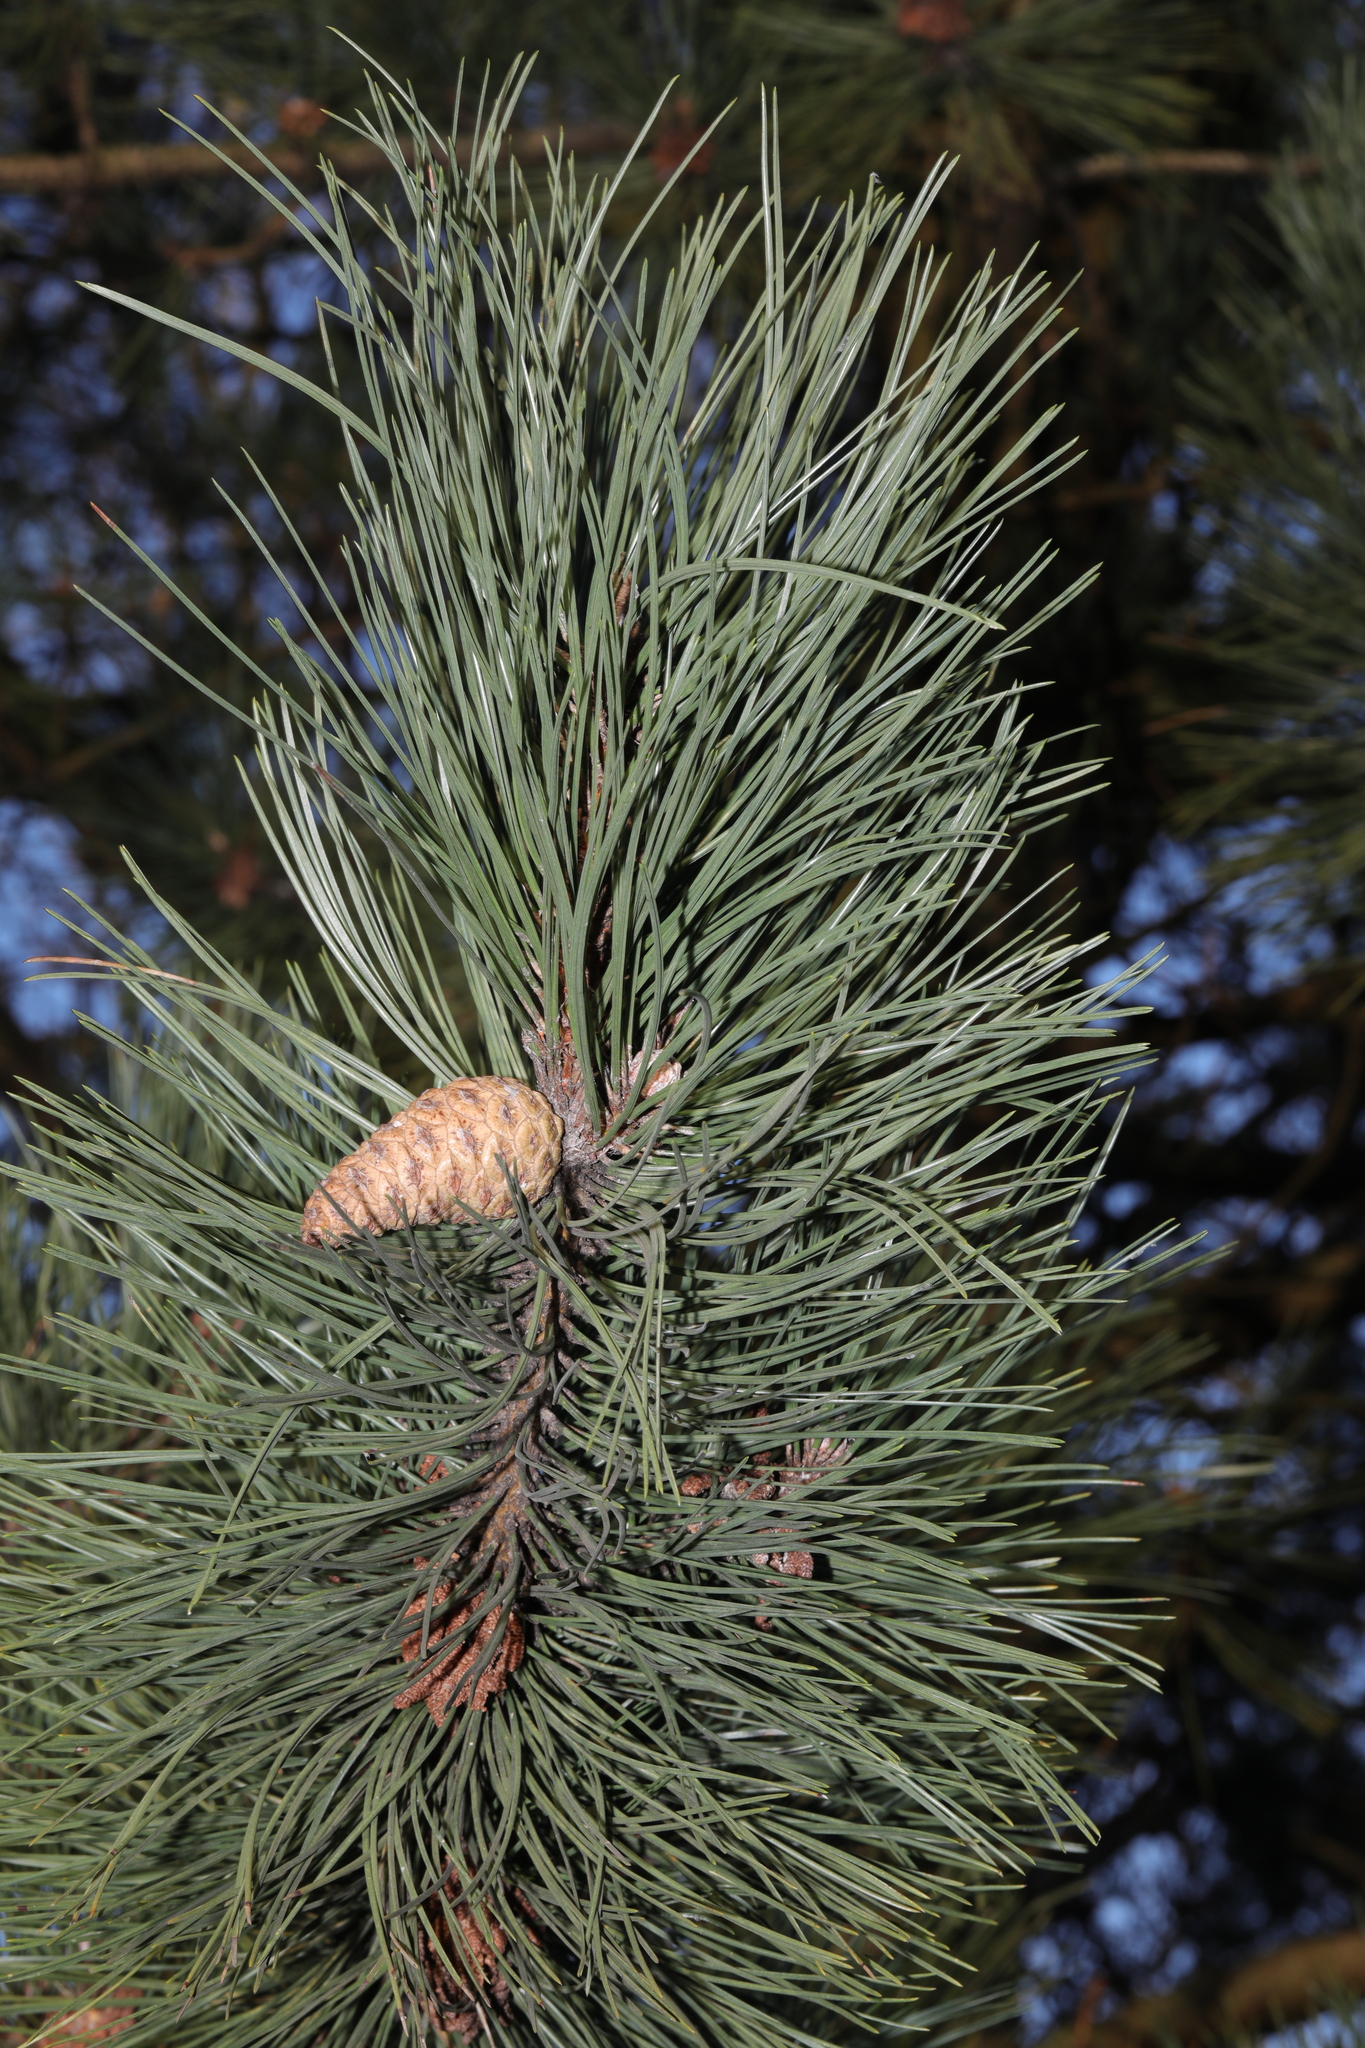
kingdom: Plantae
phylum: Tracheophyta
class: Pinopsida
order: Pinales
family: Pinaceae
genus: Pinus
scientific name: Pinus nigra
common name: Austrian pine
